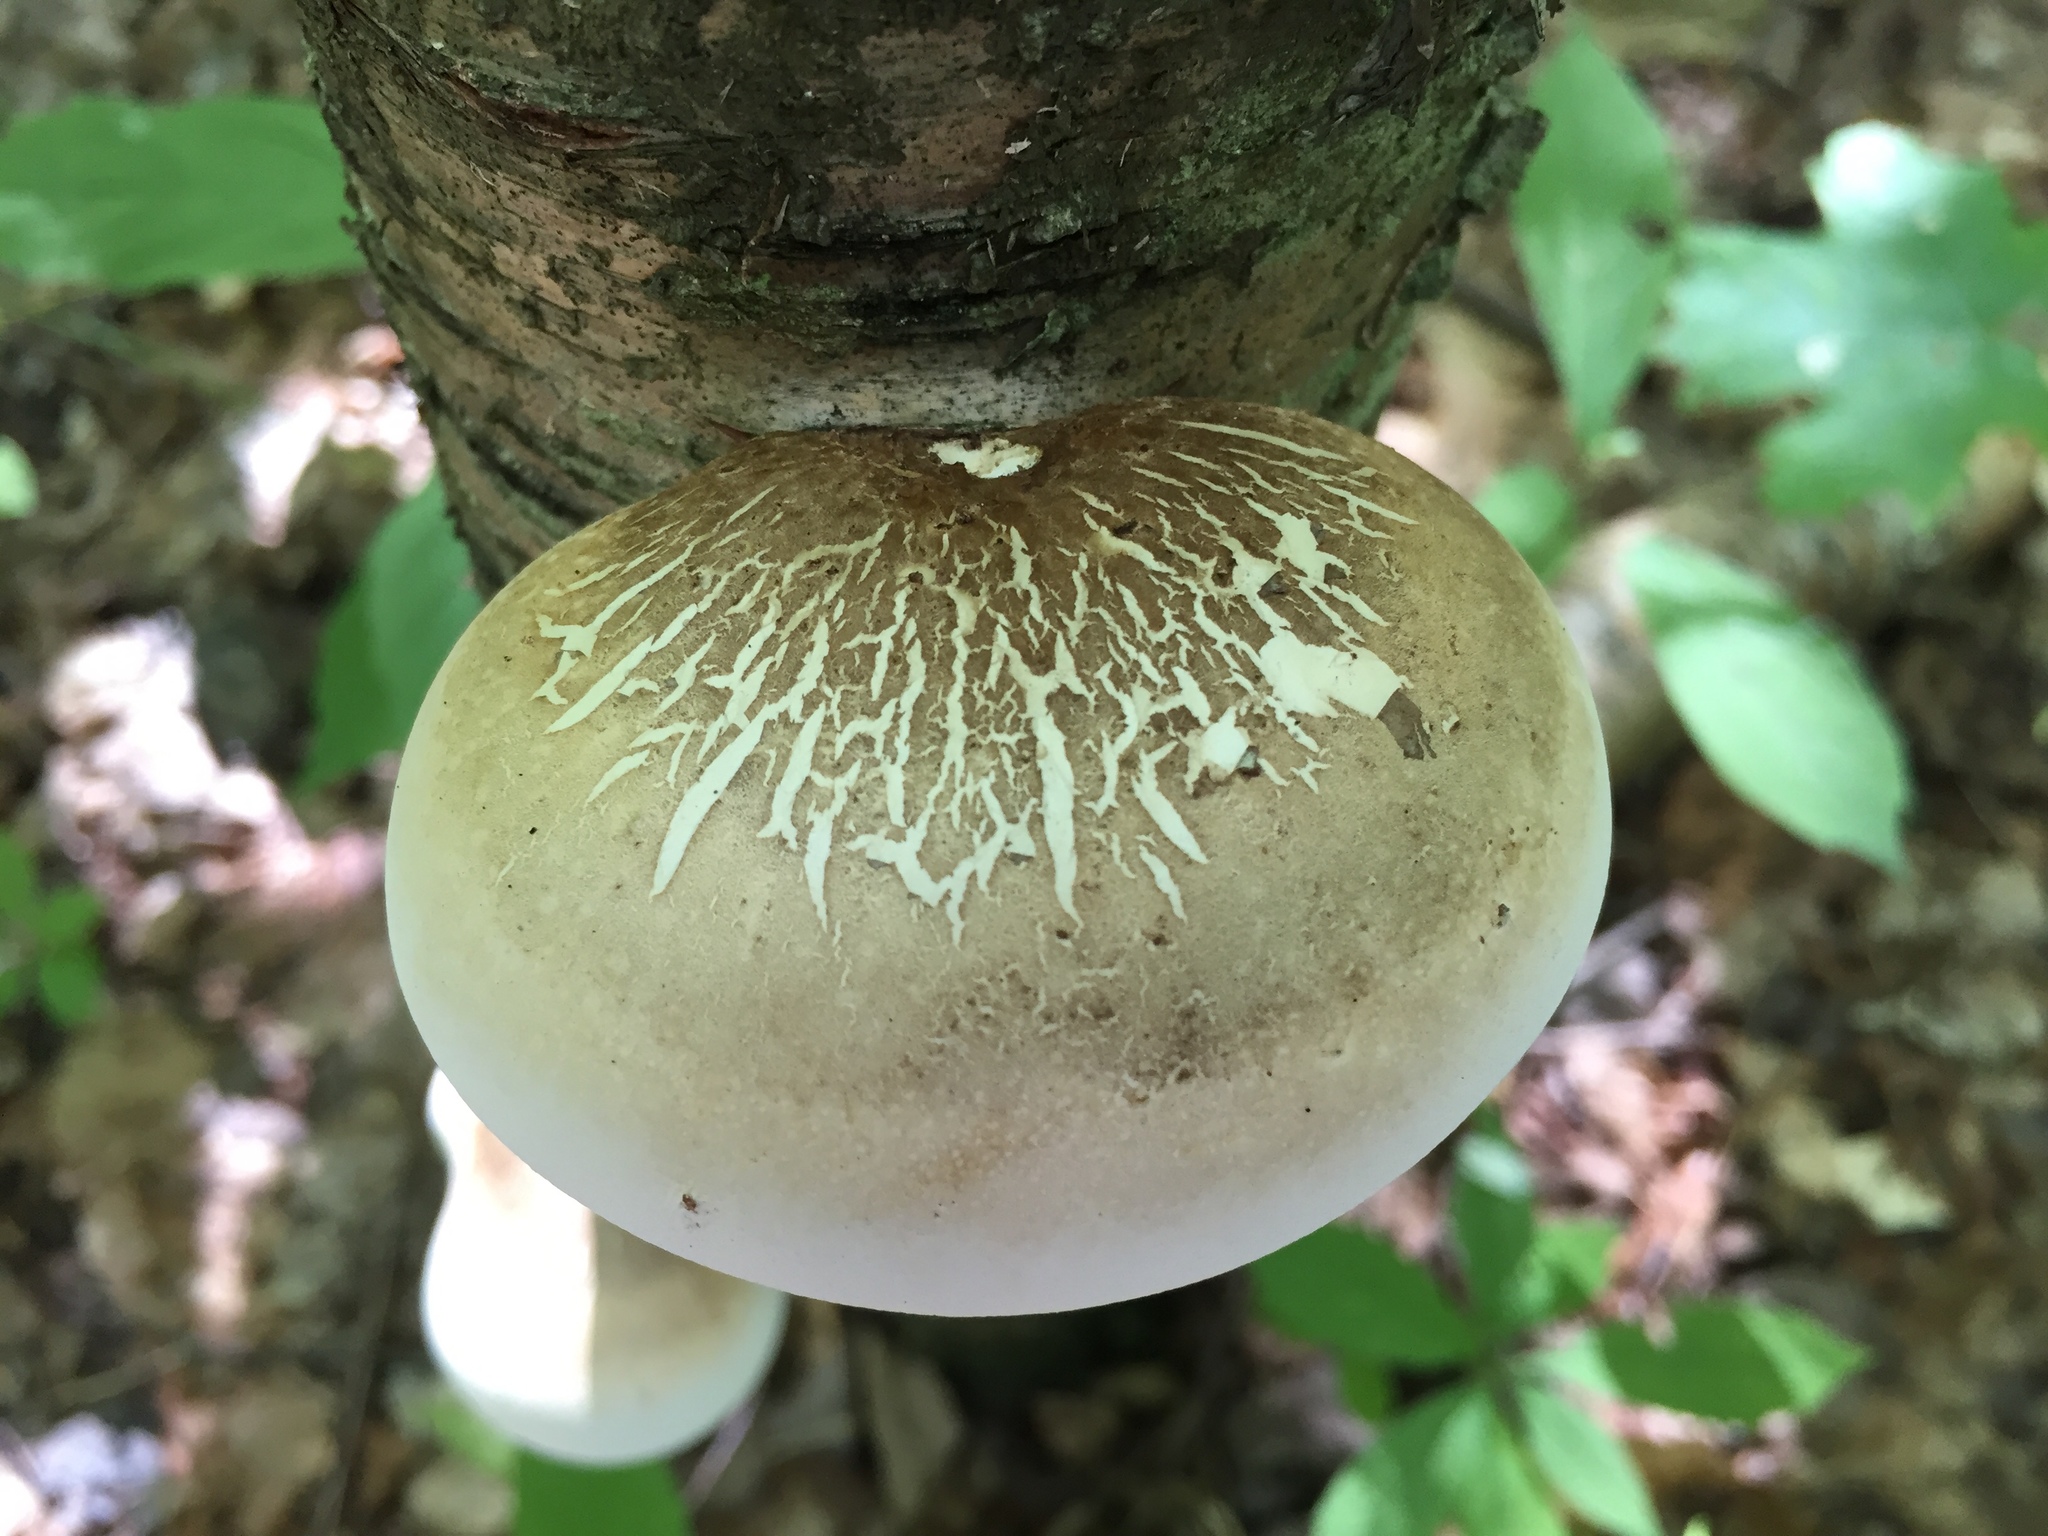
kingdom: Fungi
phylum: Basidiomycota
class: Agaricomycetes
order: Polyporales
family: Fomitopsidaceae
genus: Fomitopsis
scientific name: Fomitopsis betulina
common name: Birch polypore
